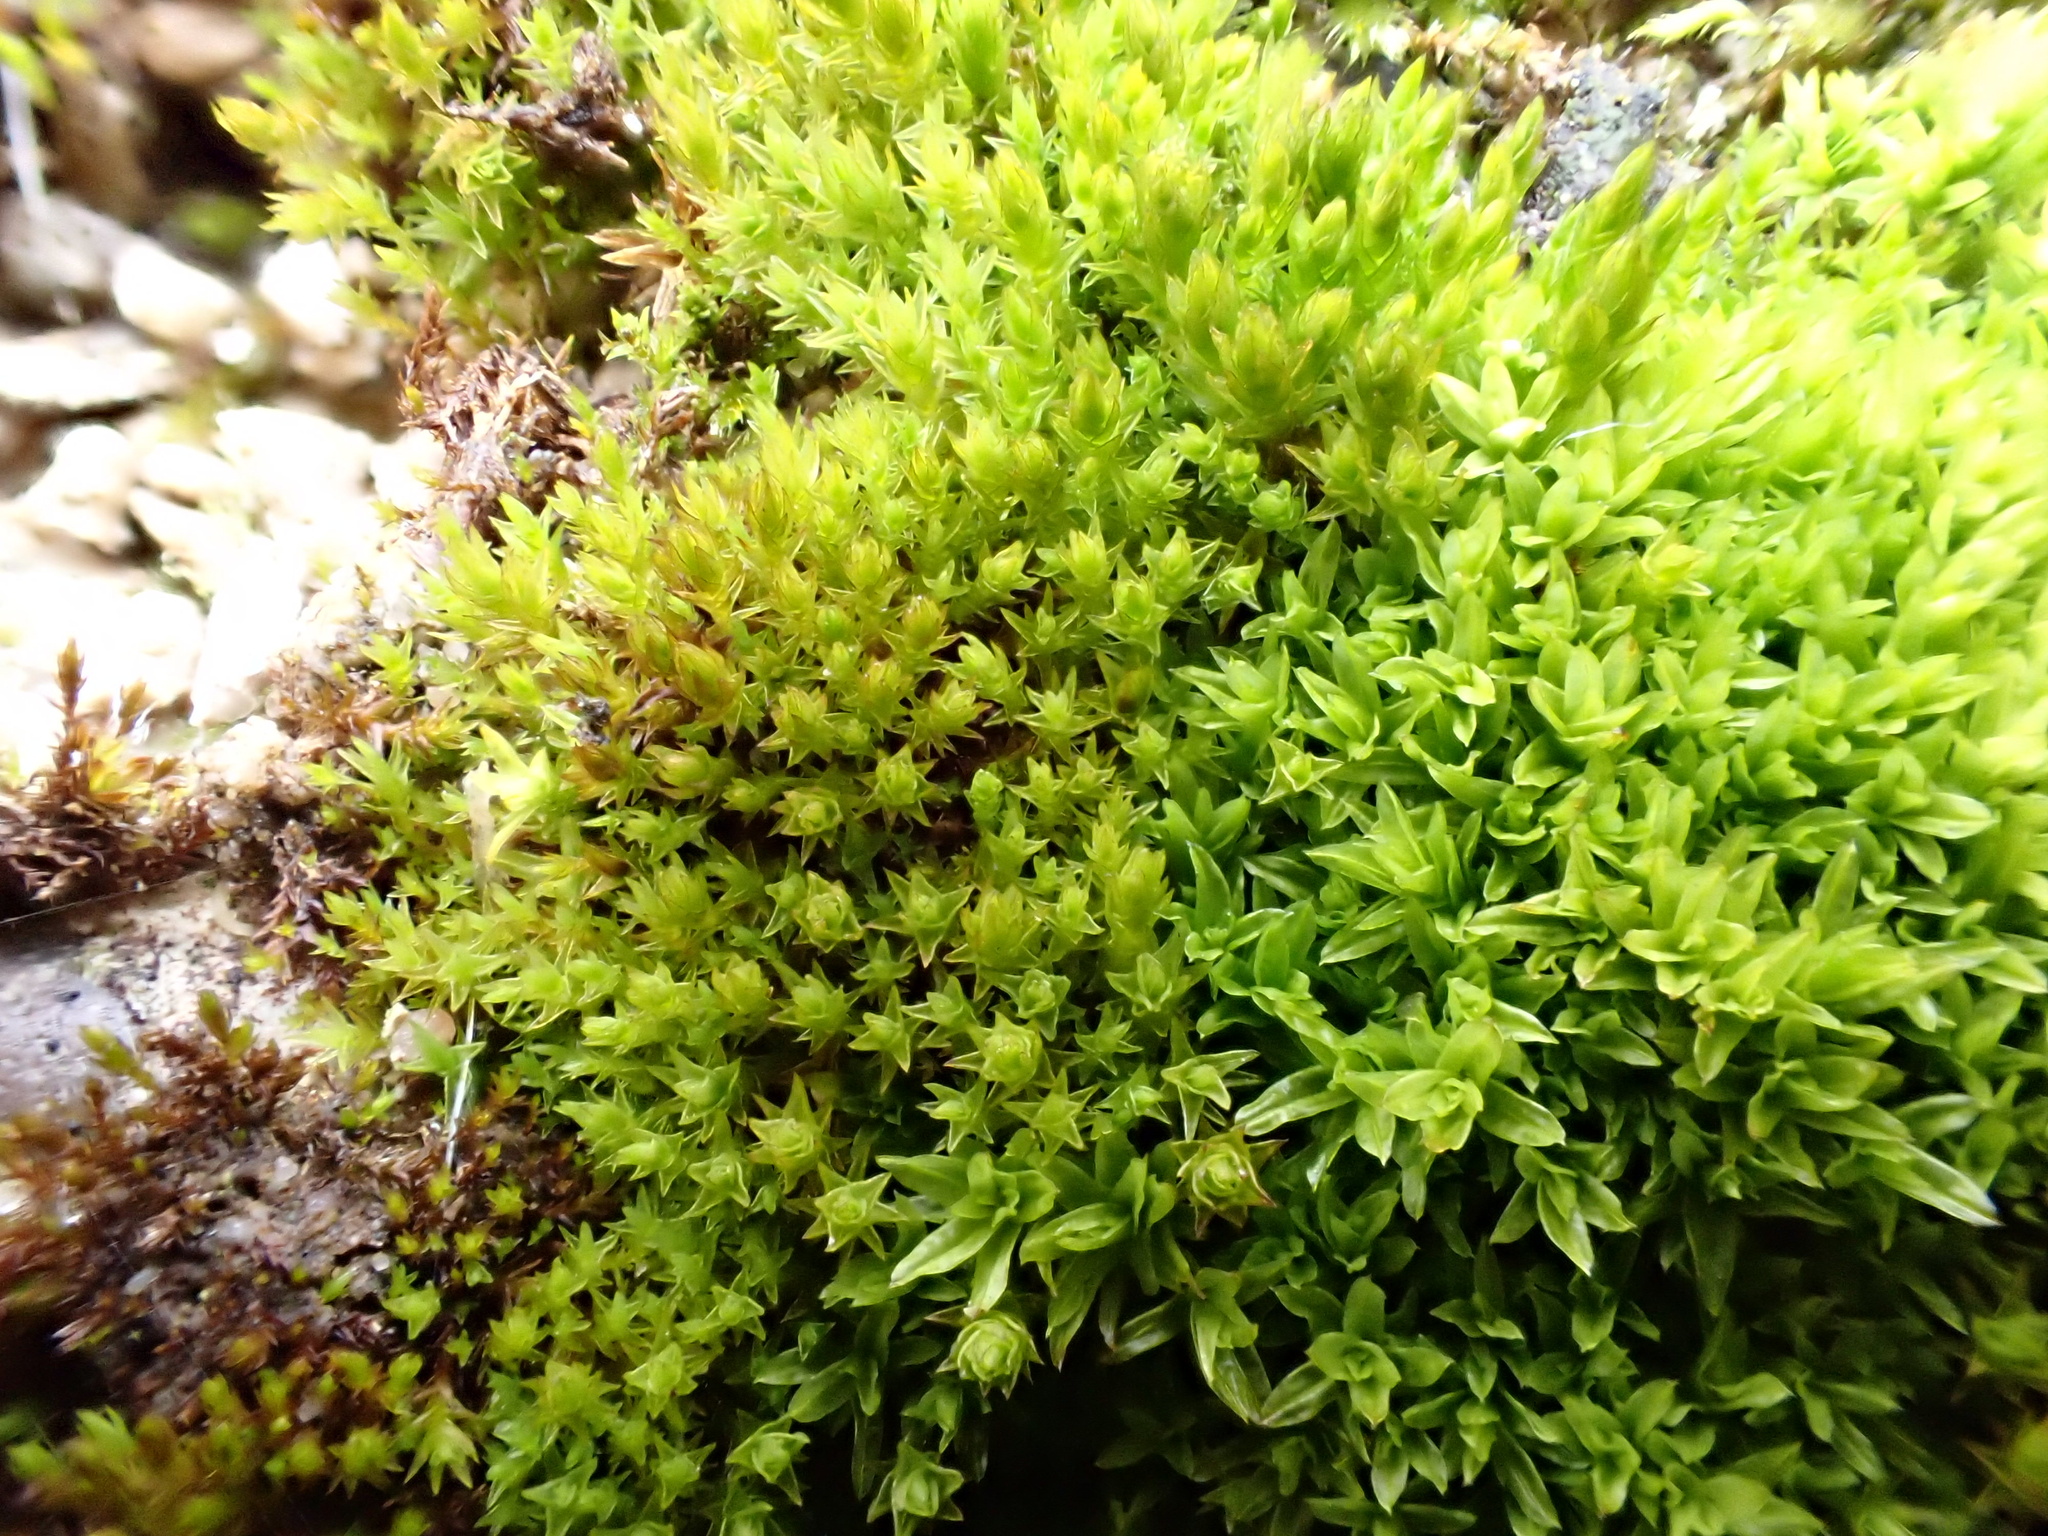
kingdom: Plantae
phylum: Bryophyta
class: Bryopsida
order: Pottiales
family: Pottiaceae
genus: Barbula
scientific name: Barbula unguiculata
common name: Prickly beard moss
